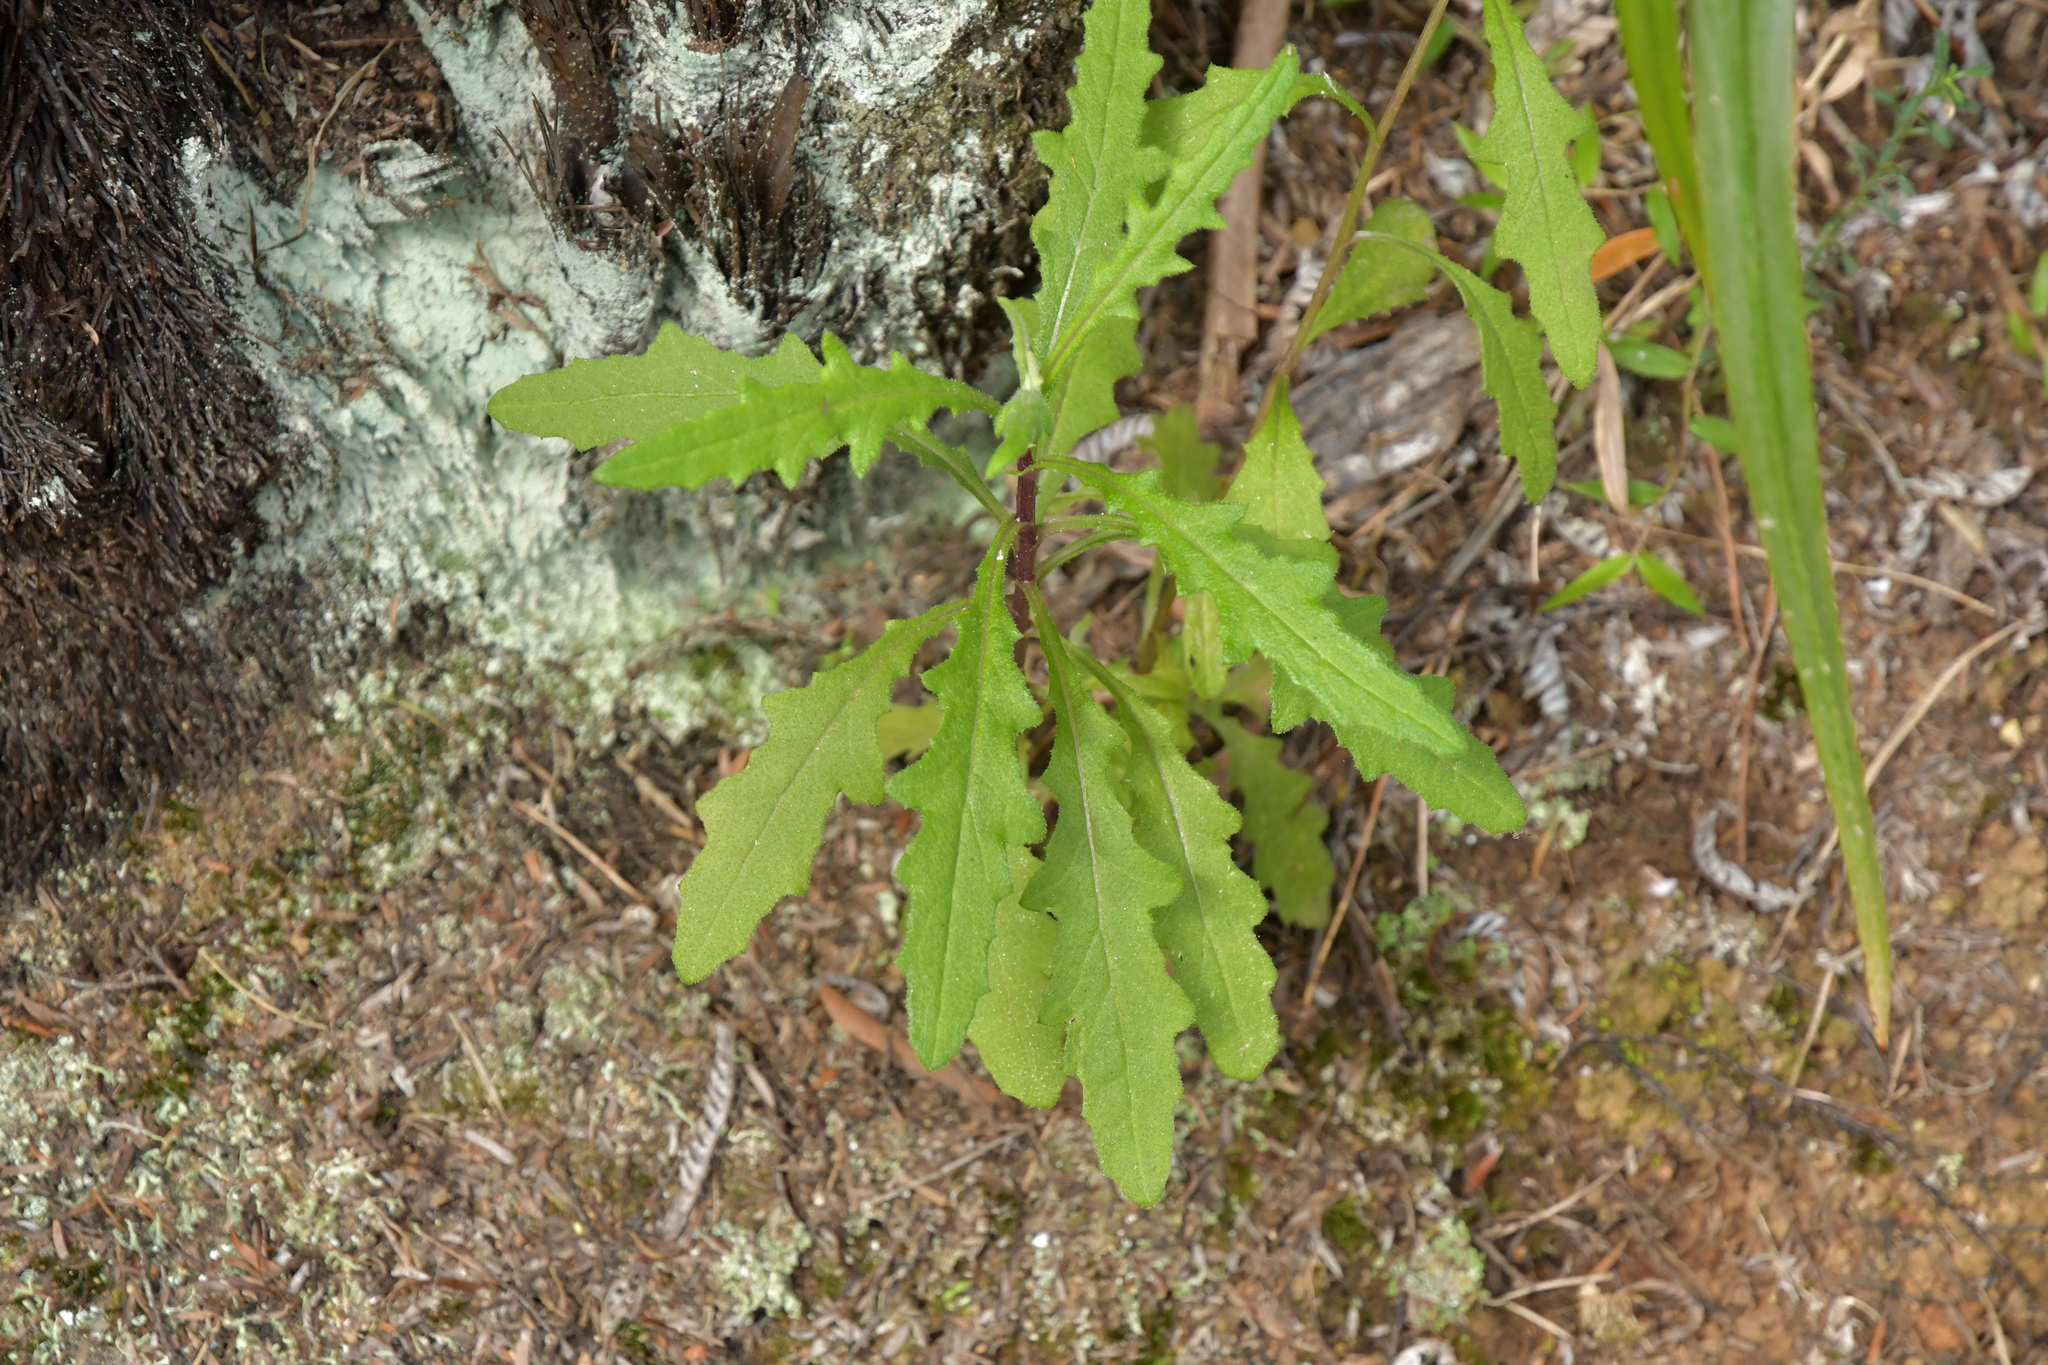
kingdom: Plantae
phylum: Tracheophyta
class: Magnoliopsida
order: Asterales
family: Asteraceae
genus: Senecio
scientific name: Senecio hispidulus
